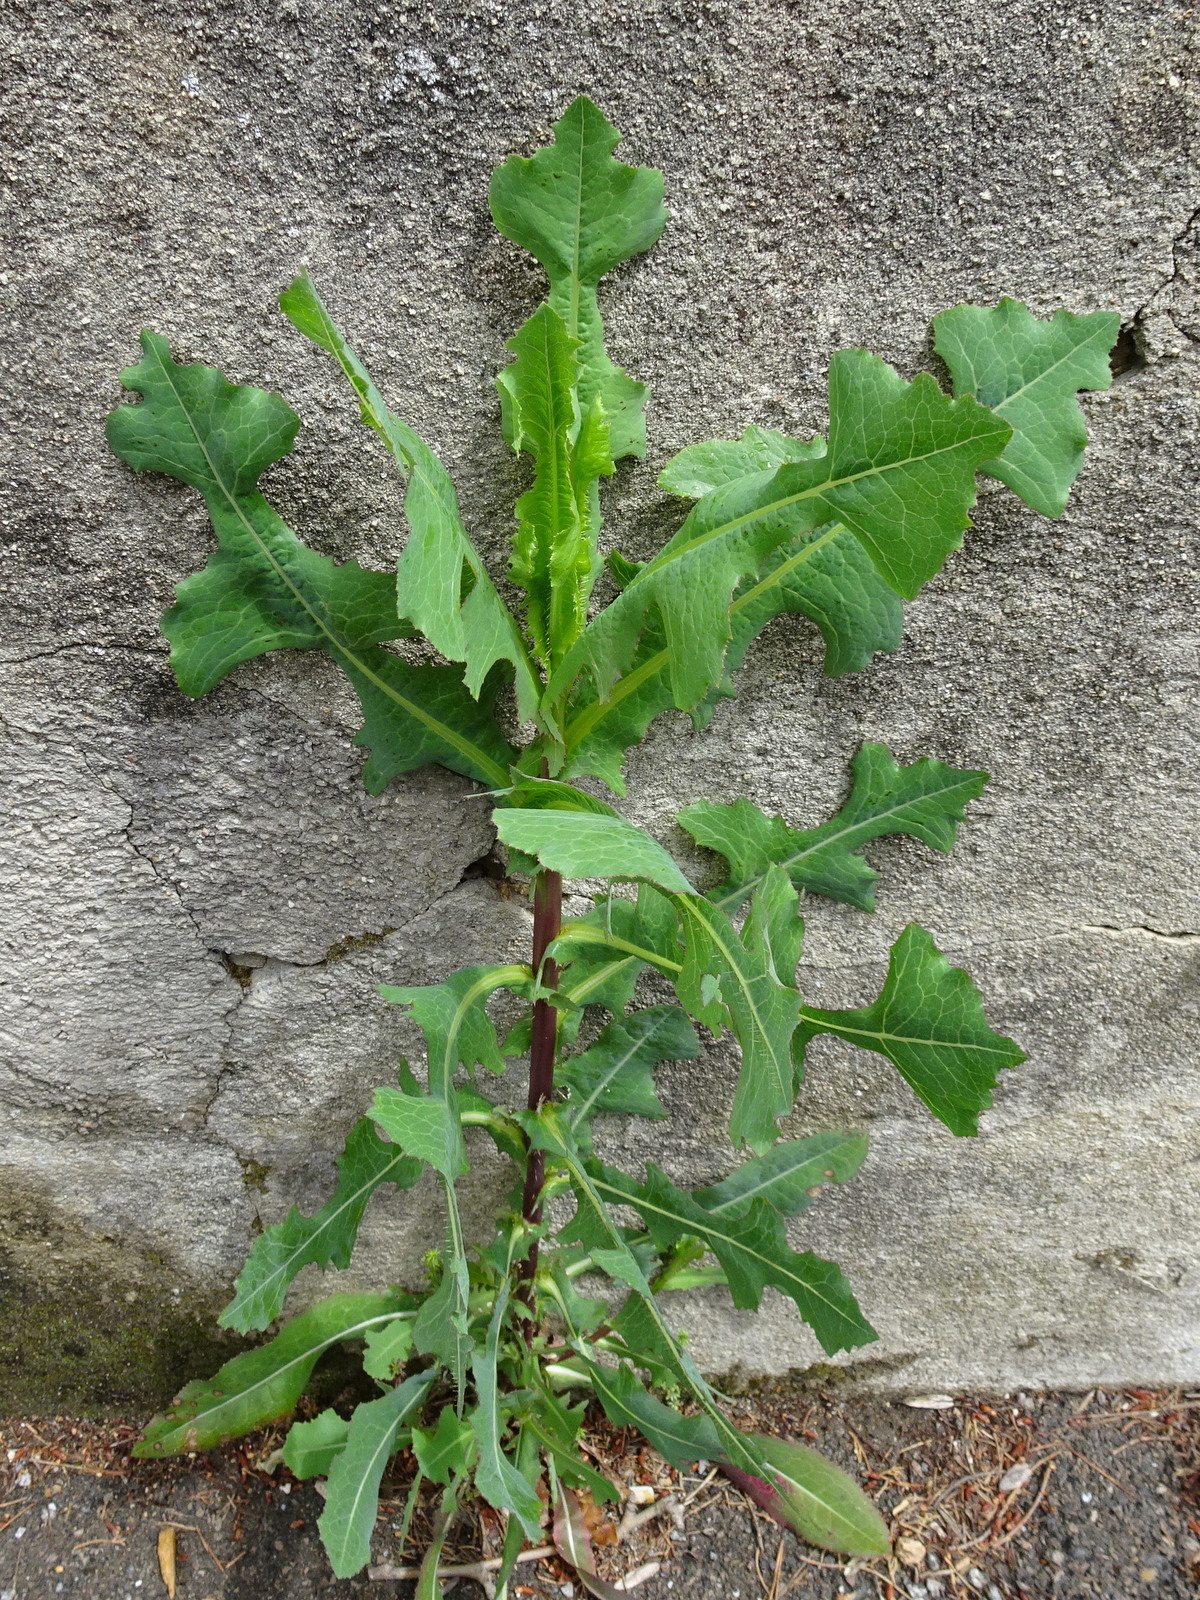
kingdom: Plantae
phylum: Tracheophyta
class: Magnoliopsida
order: Asterales
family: Asteraceae
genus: Lactuca
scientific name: Lactuca serriola
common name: Prickly lettuce
